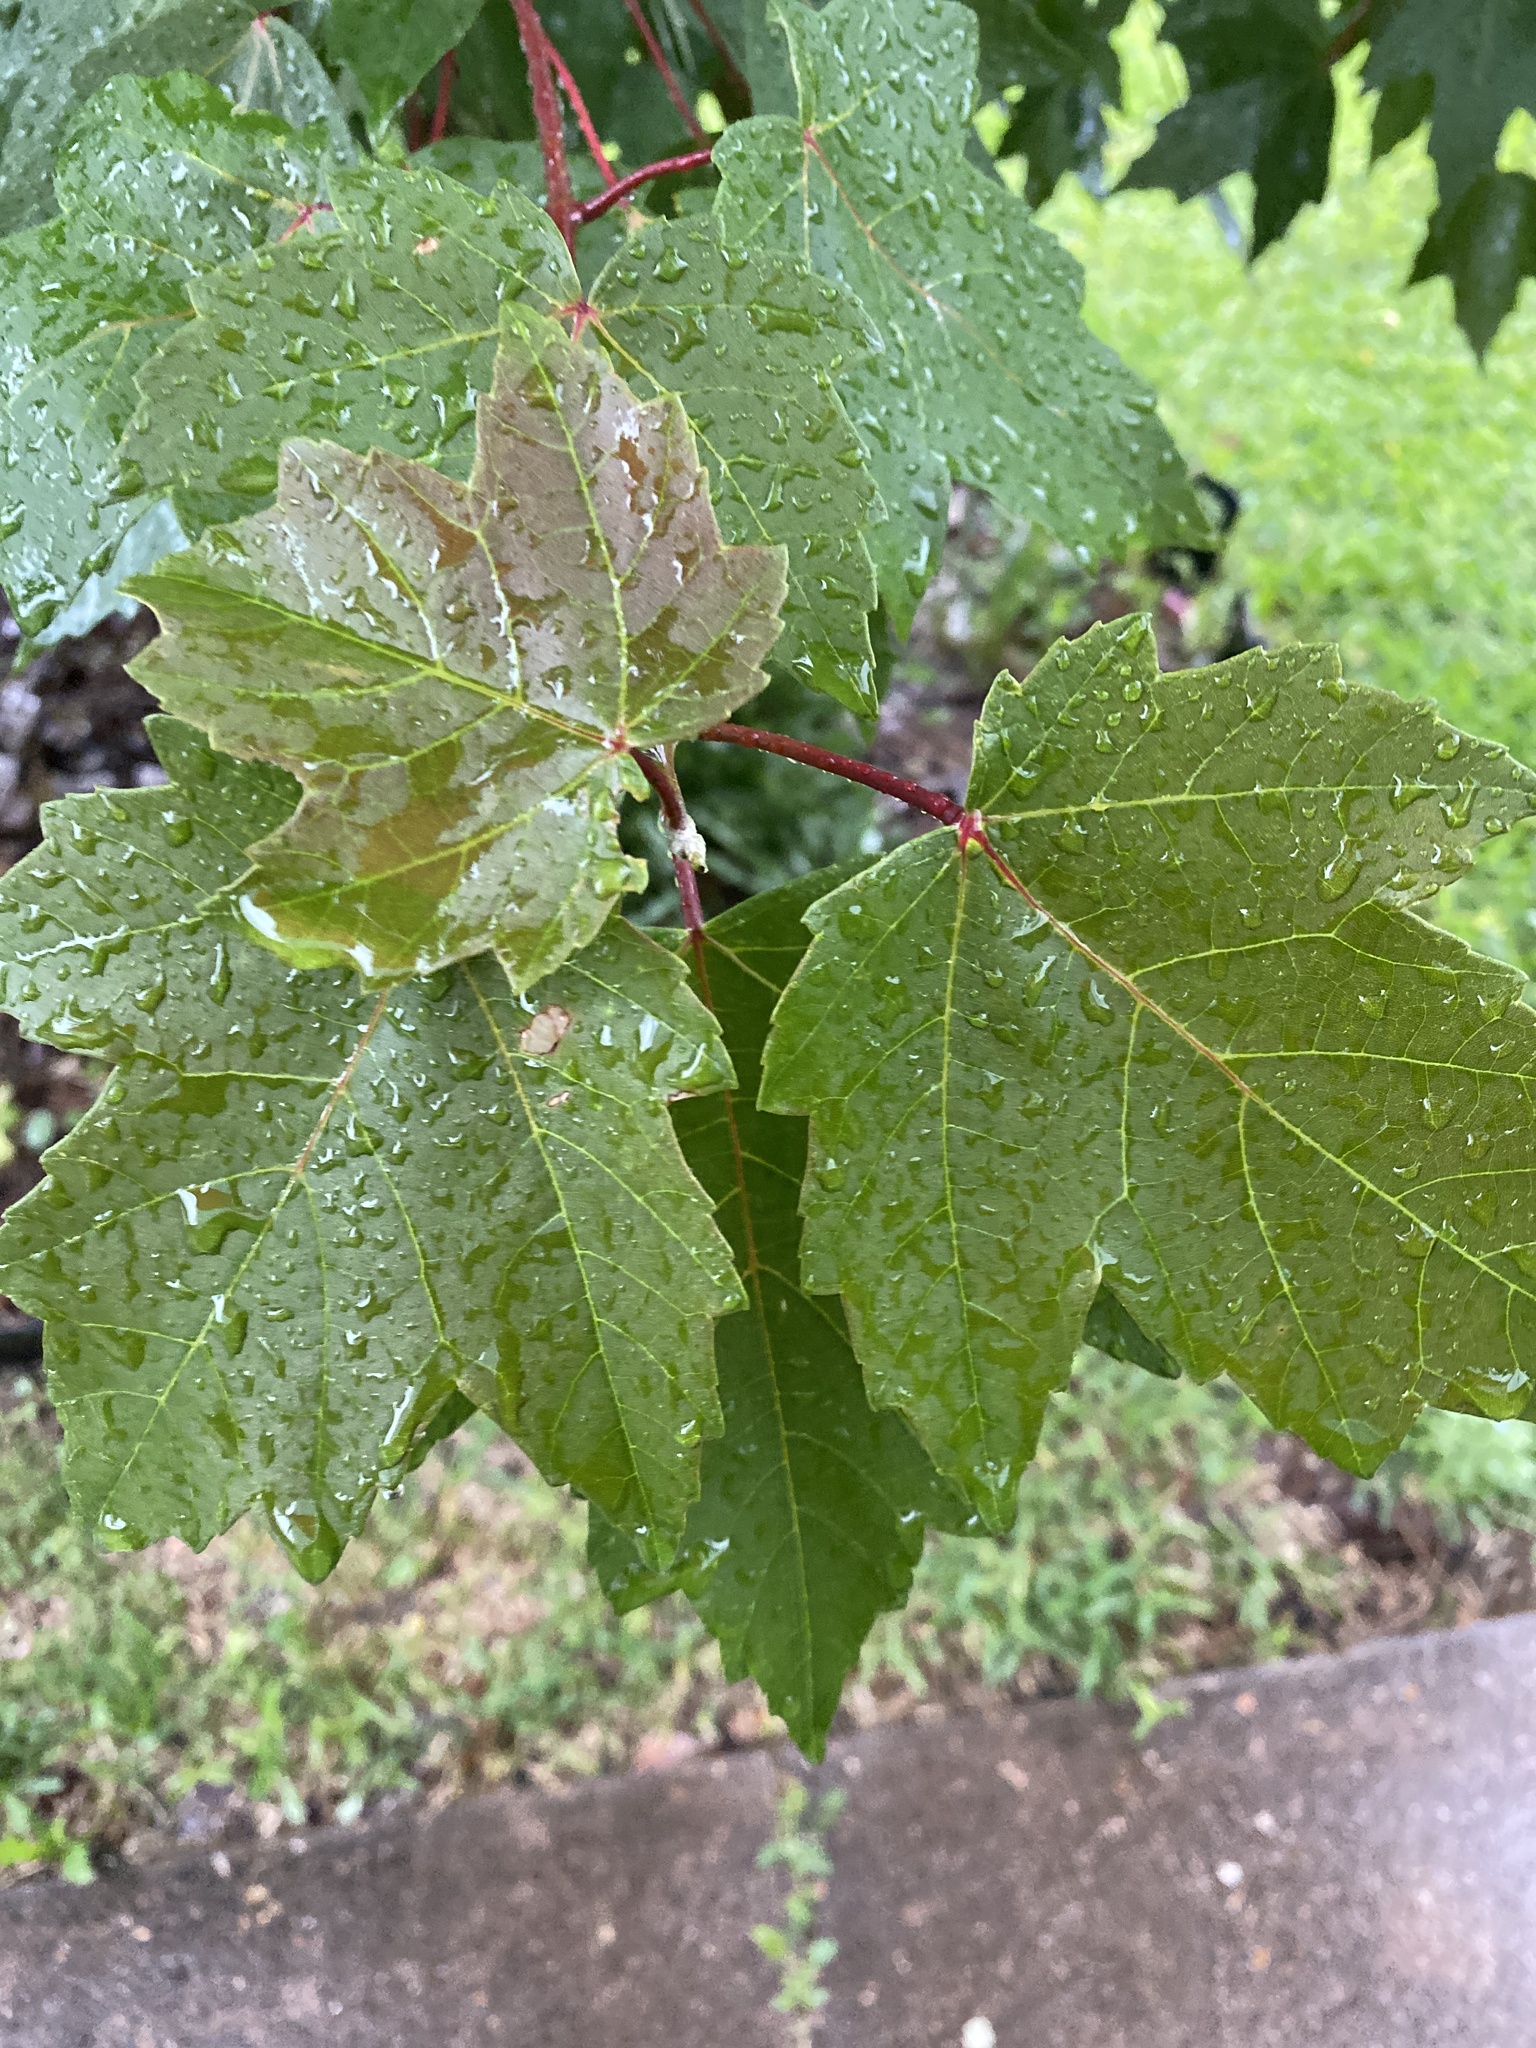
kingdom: Plantae
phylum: Tracheophyta
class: Magnoliopsida
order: Sapindales
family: Sapindaceae
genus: Acer
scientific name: Acer rubrum
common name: Red maple
